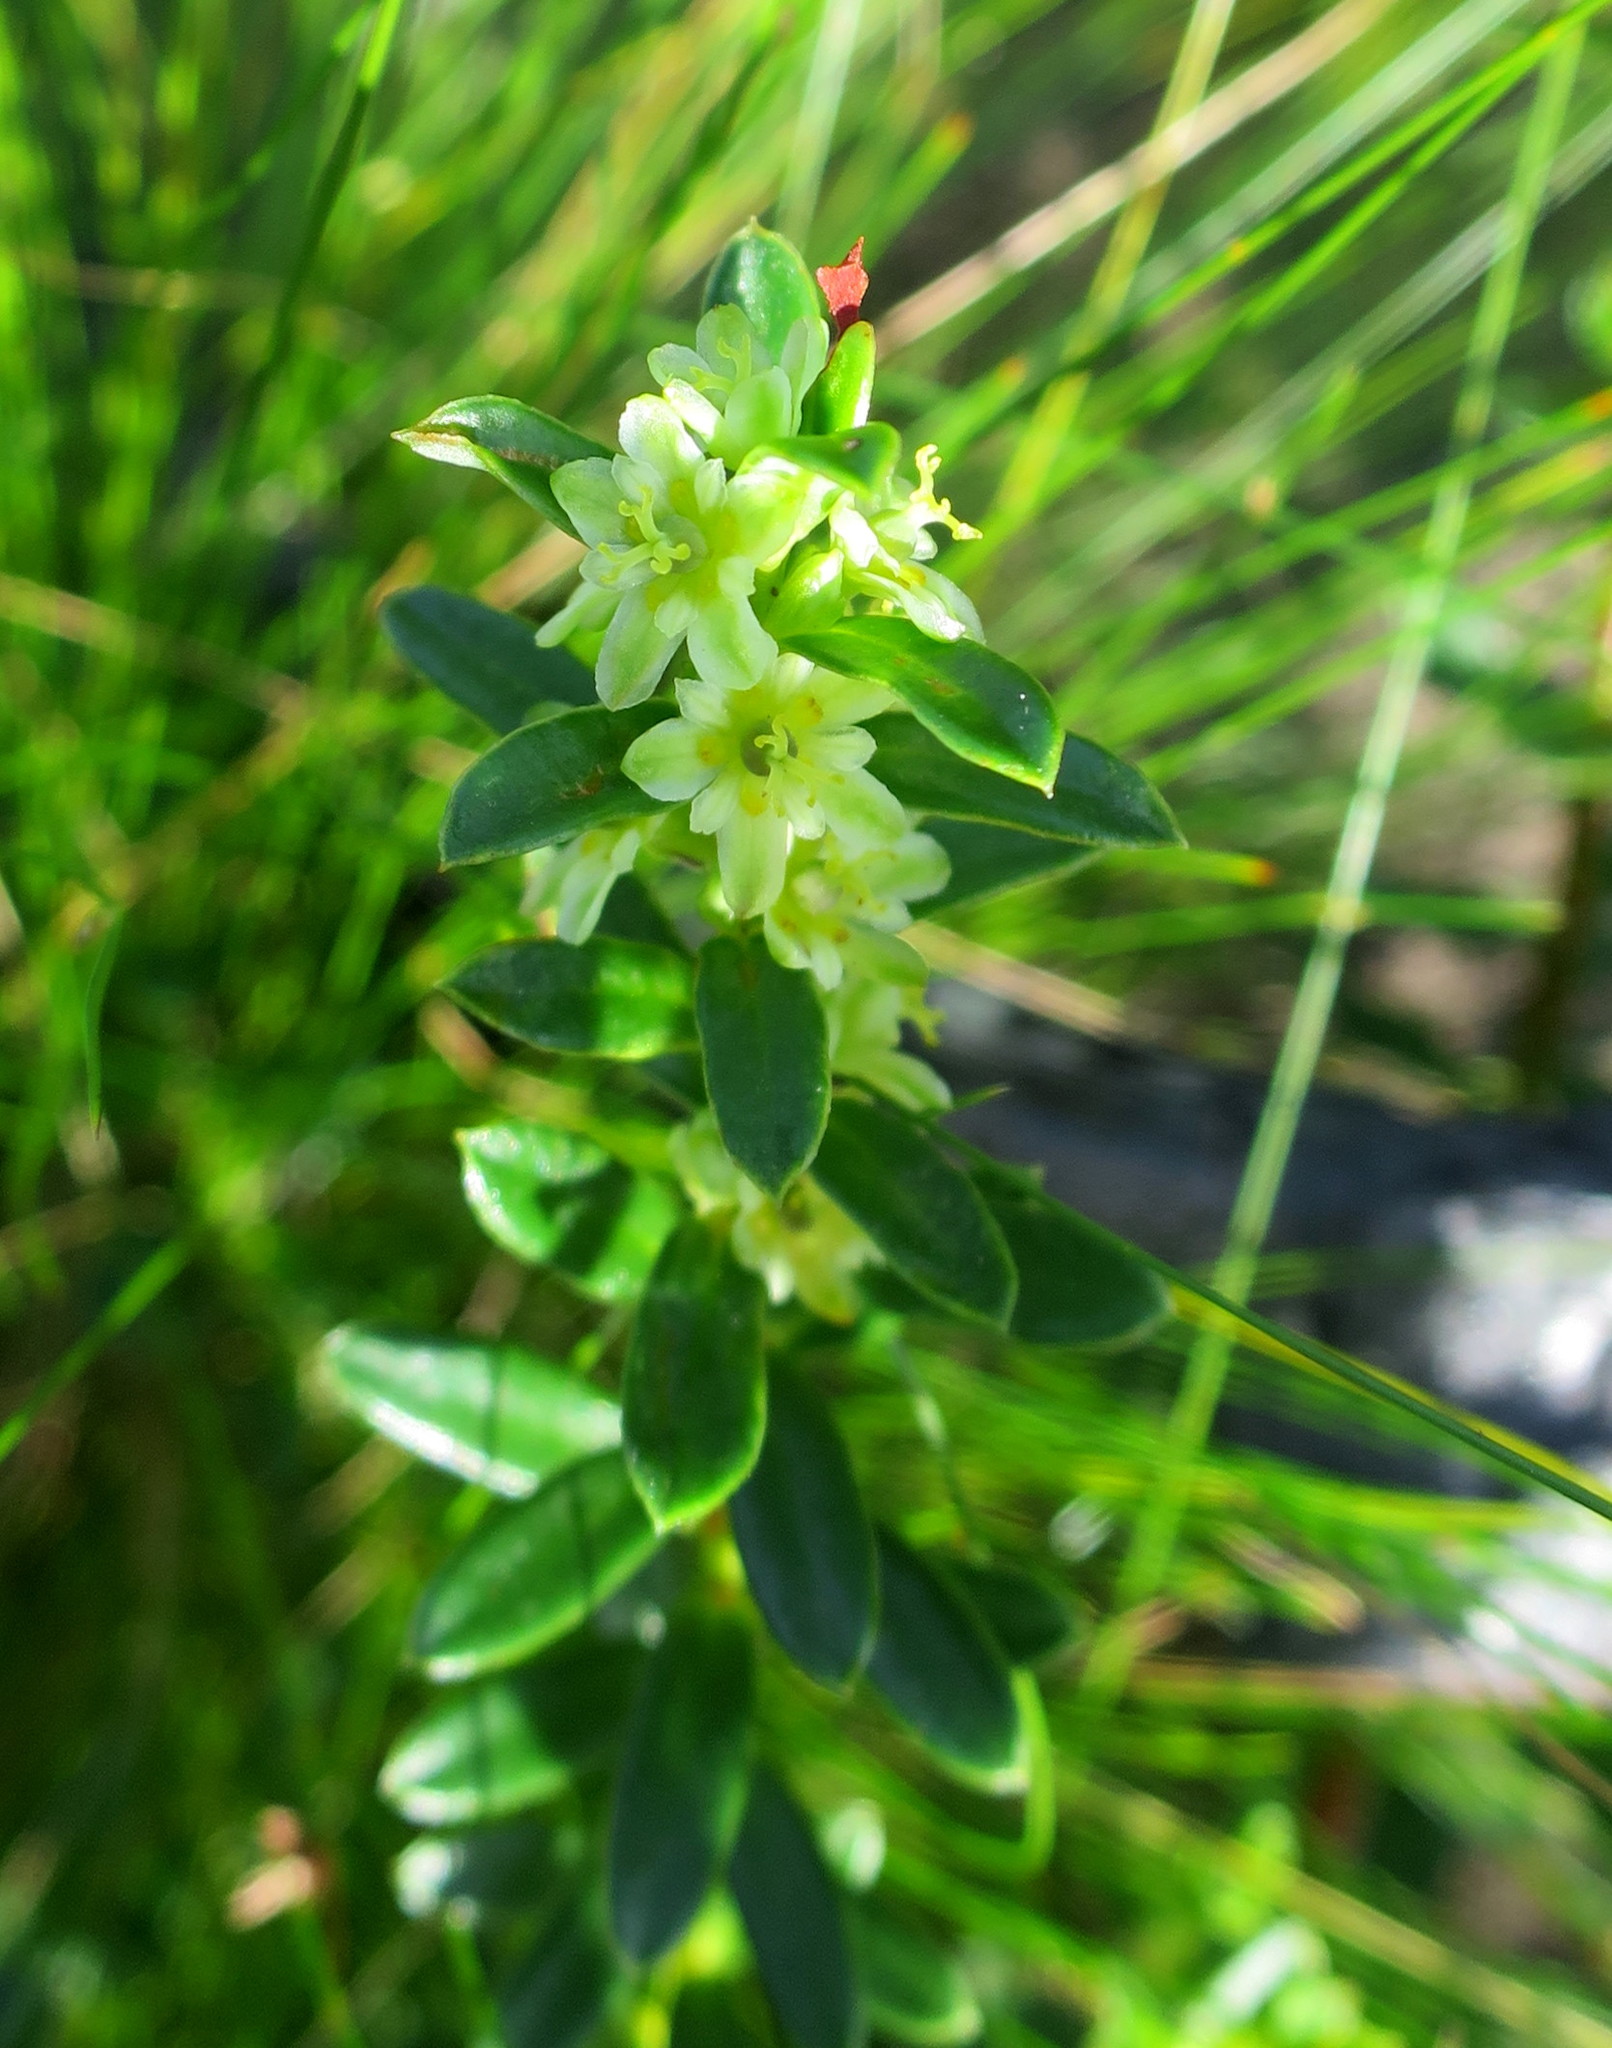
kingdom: Plantae
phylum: Tracheophyta
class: Magnoliopsida
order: Gentianales
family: Apocynaceae
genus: Cynanchum
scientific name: Cynanchum obtusifolium
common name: Monkey-rope
